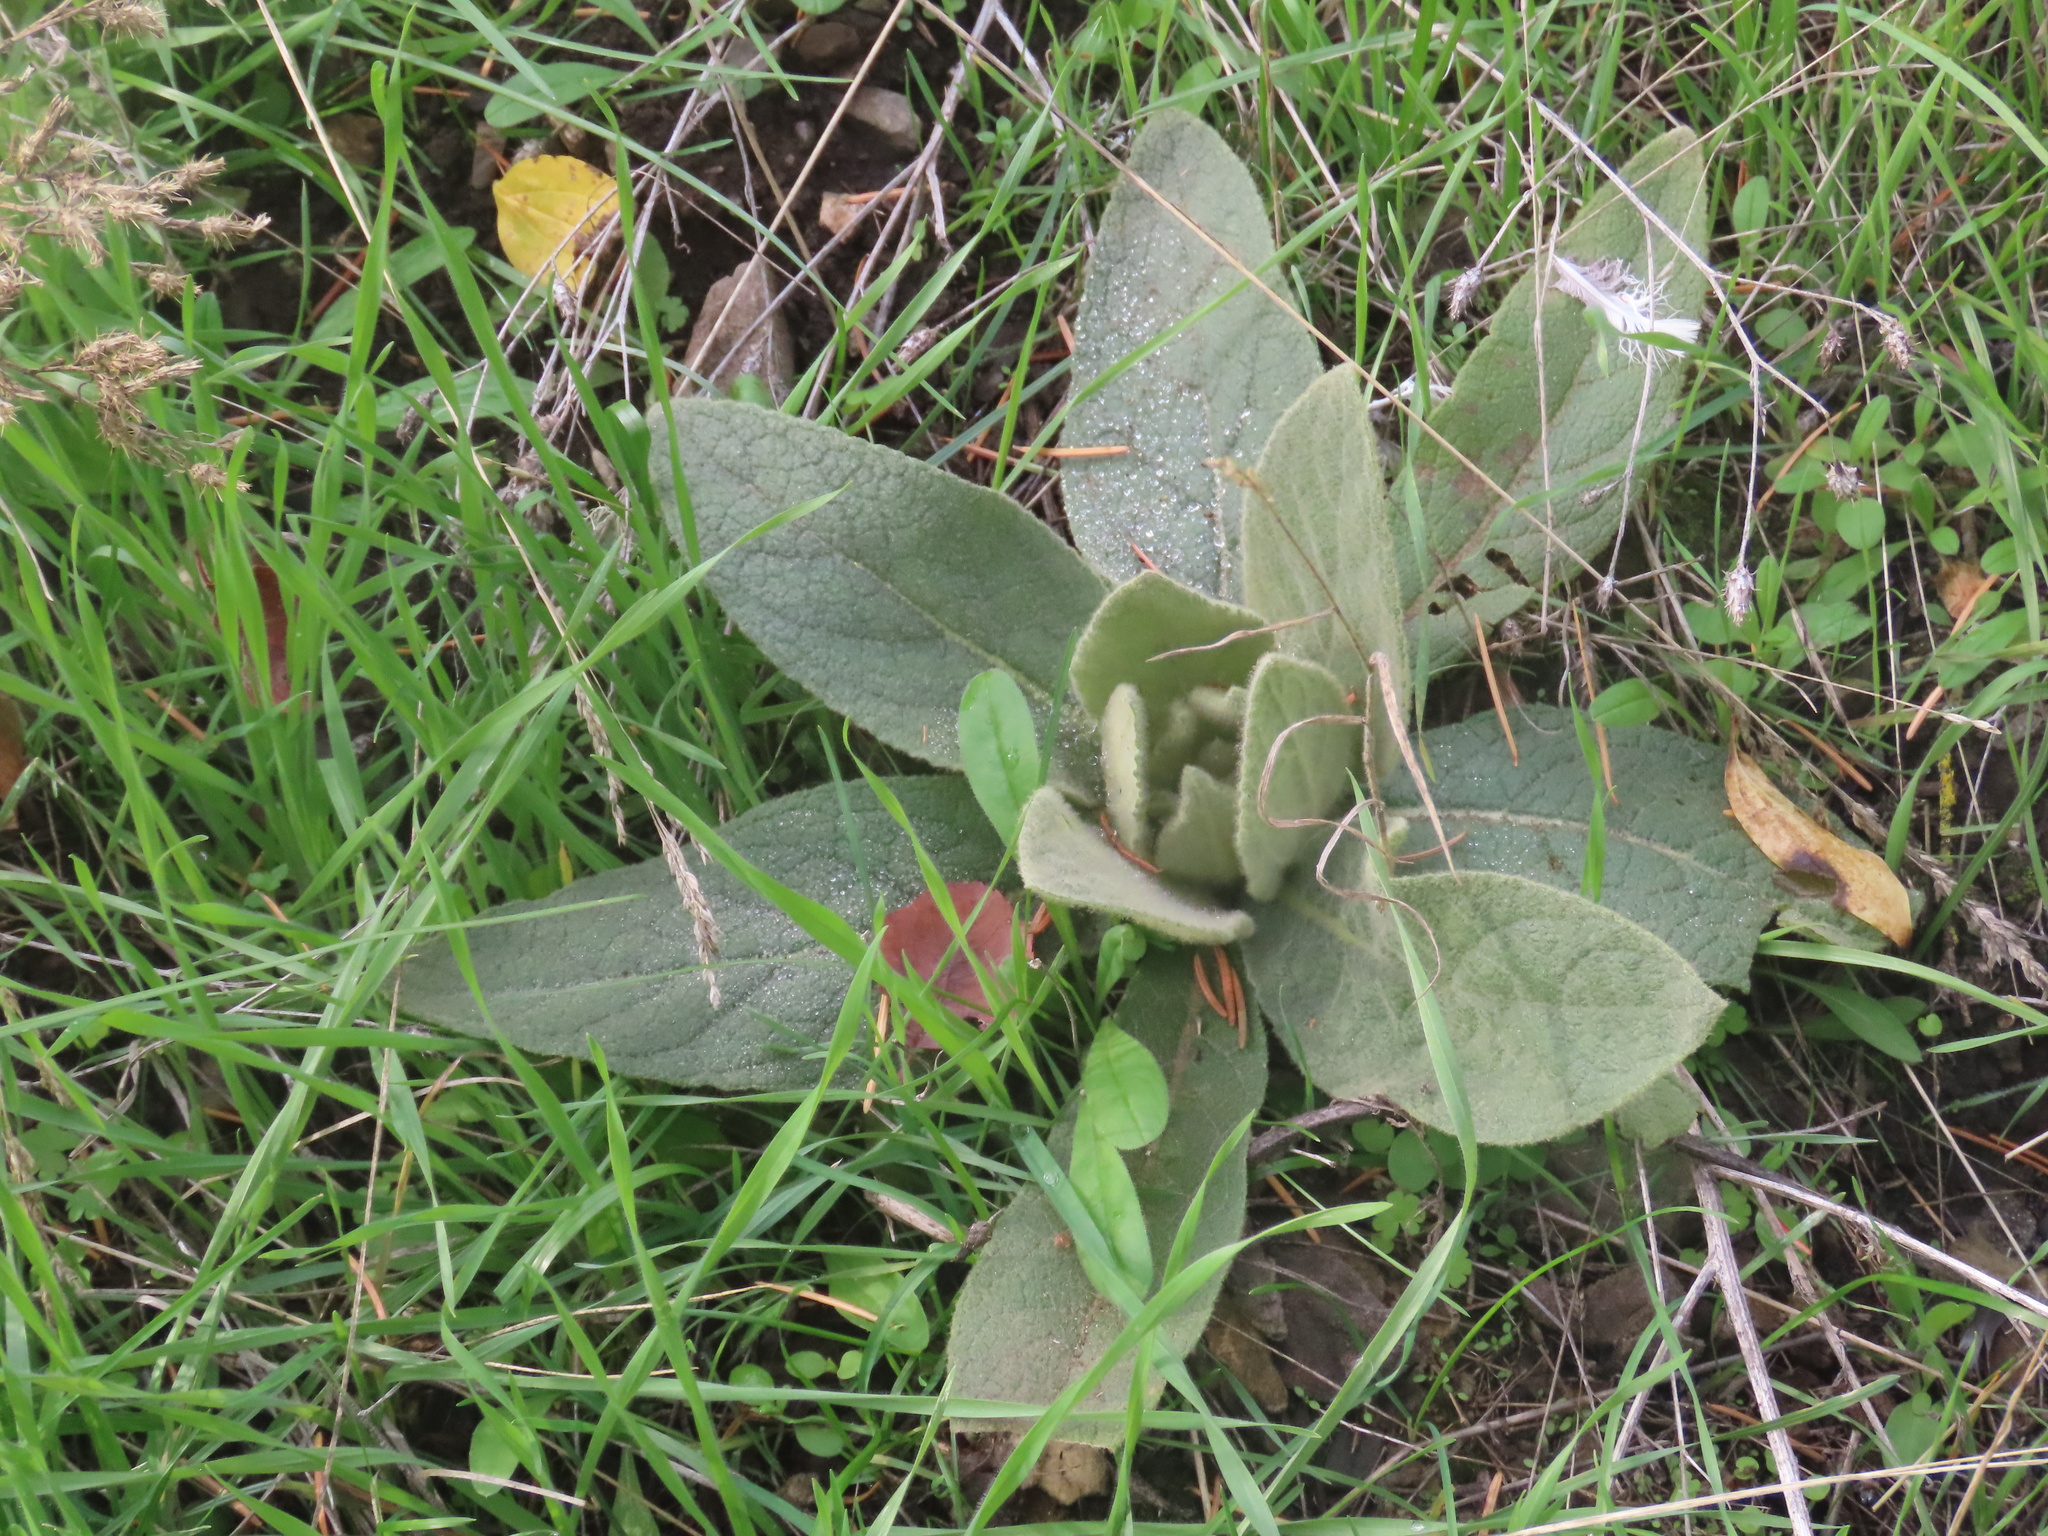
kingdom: Plantae
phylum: Tracheophyta
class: Magnoliopsida
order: Lamiales
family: Scrophulariaceae
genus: Verbascum
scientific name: Verbascum thapsus
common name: Common mullein
